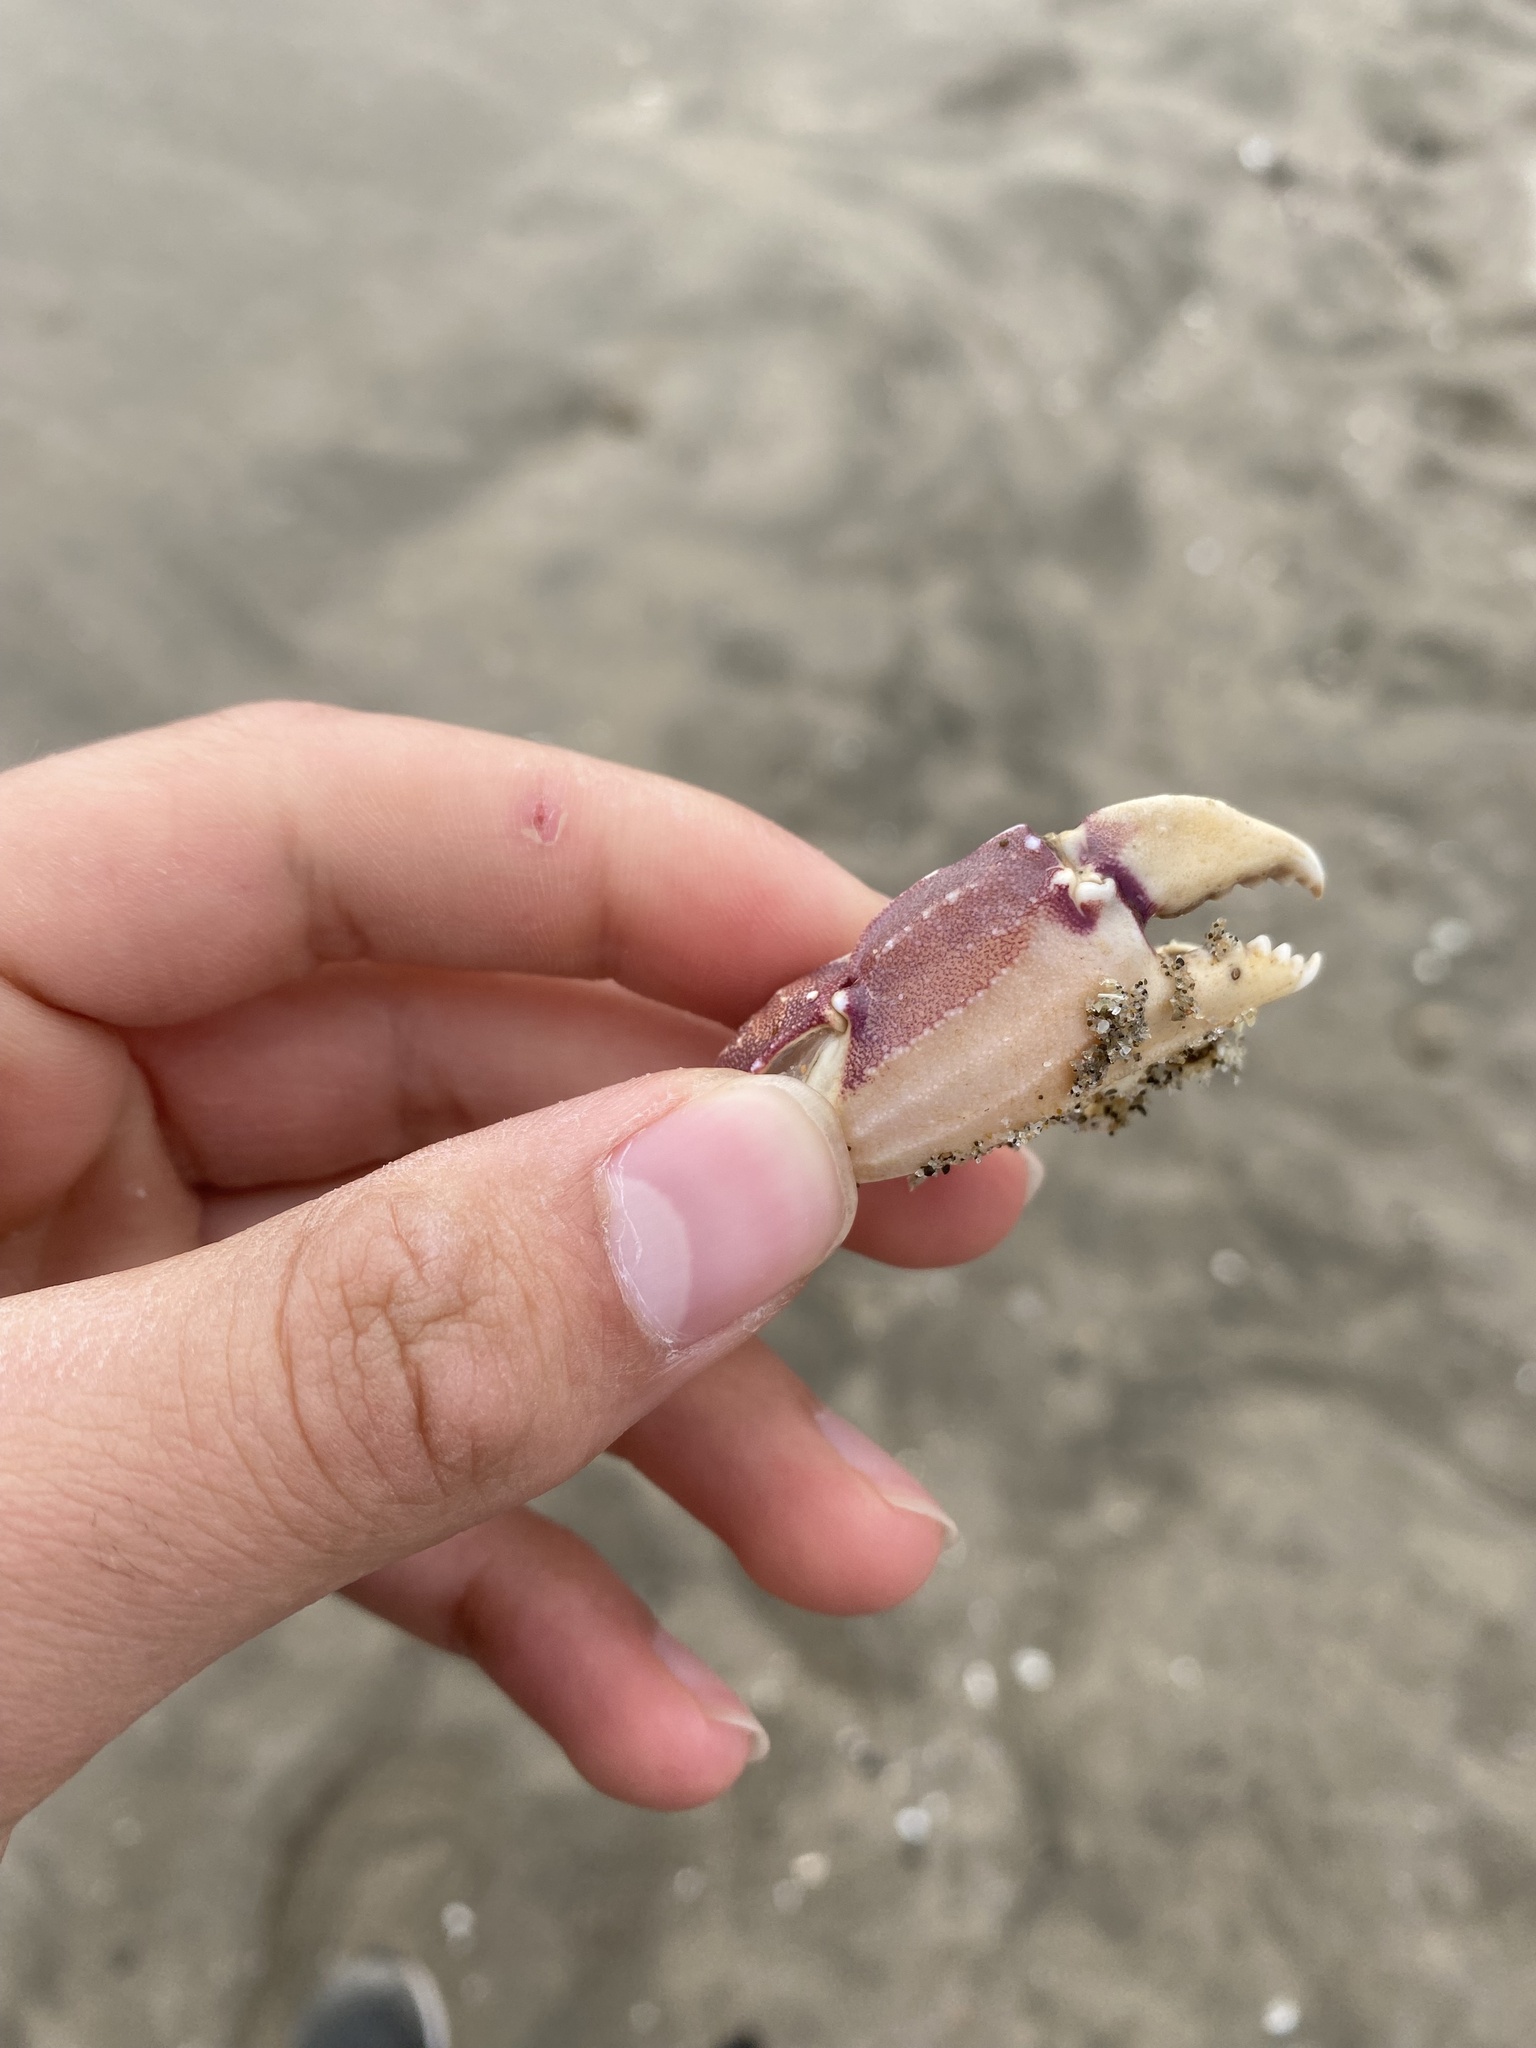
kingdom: Animalia
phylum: Arthropoda
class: Malacostraca
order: Decapoda
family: Cancridae
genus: Metacarcinus
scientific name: Metacarcinus gracilis
